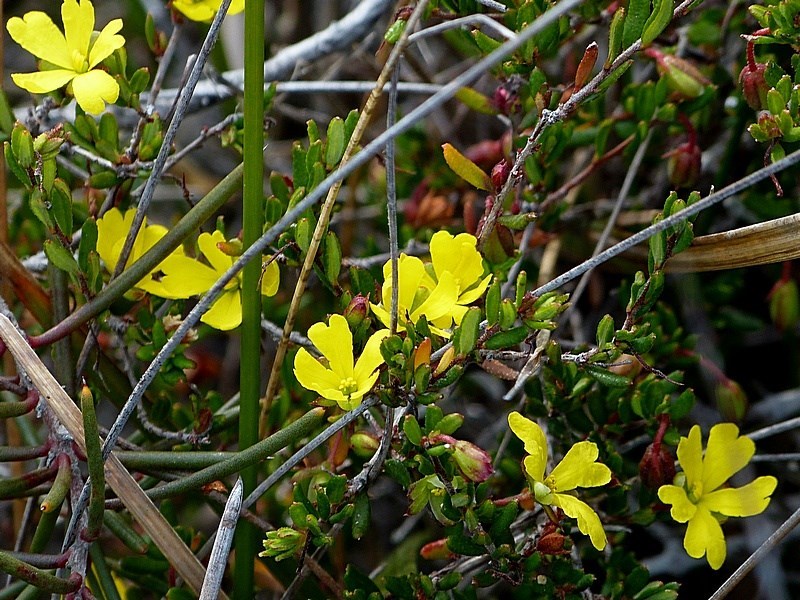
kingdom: Plantae
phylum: Tracheophyta
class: Magnoliopsida
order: Dilleniales
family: Dilleniaceae
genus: Hibbertia
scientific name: Hibbertia empetrifolia
